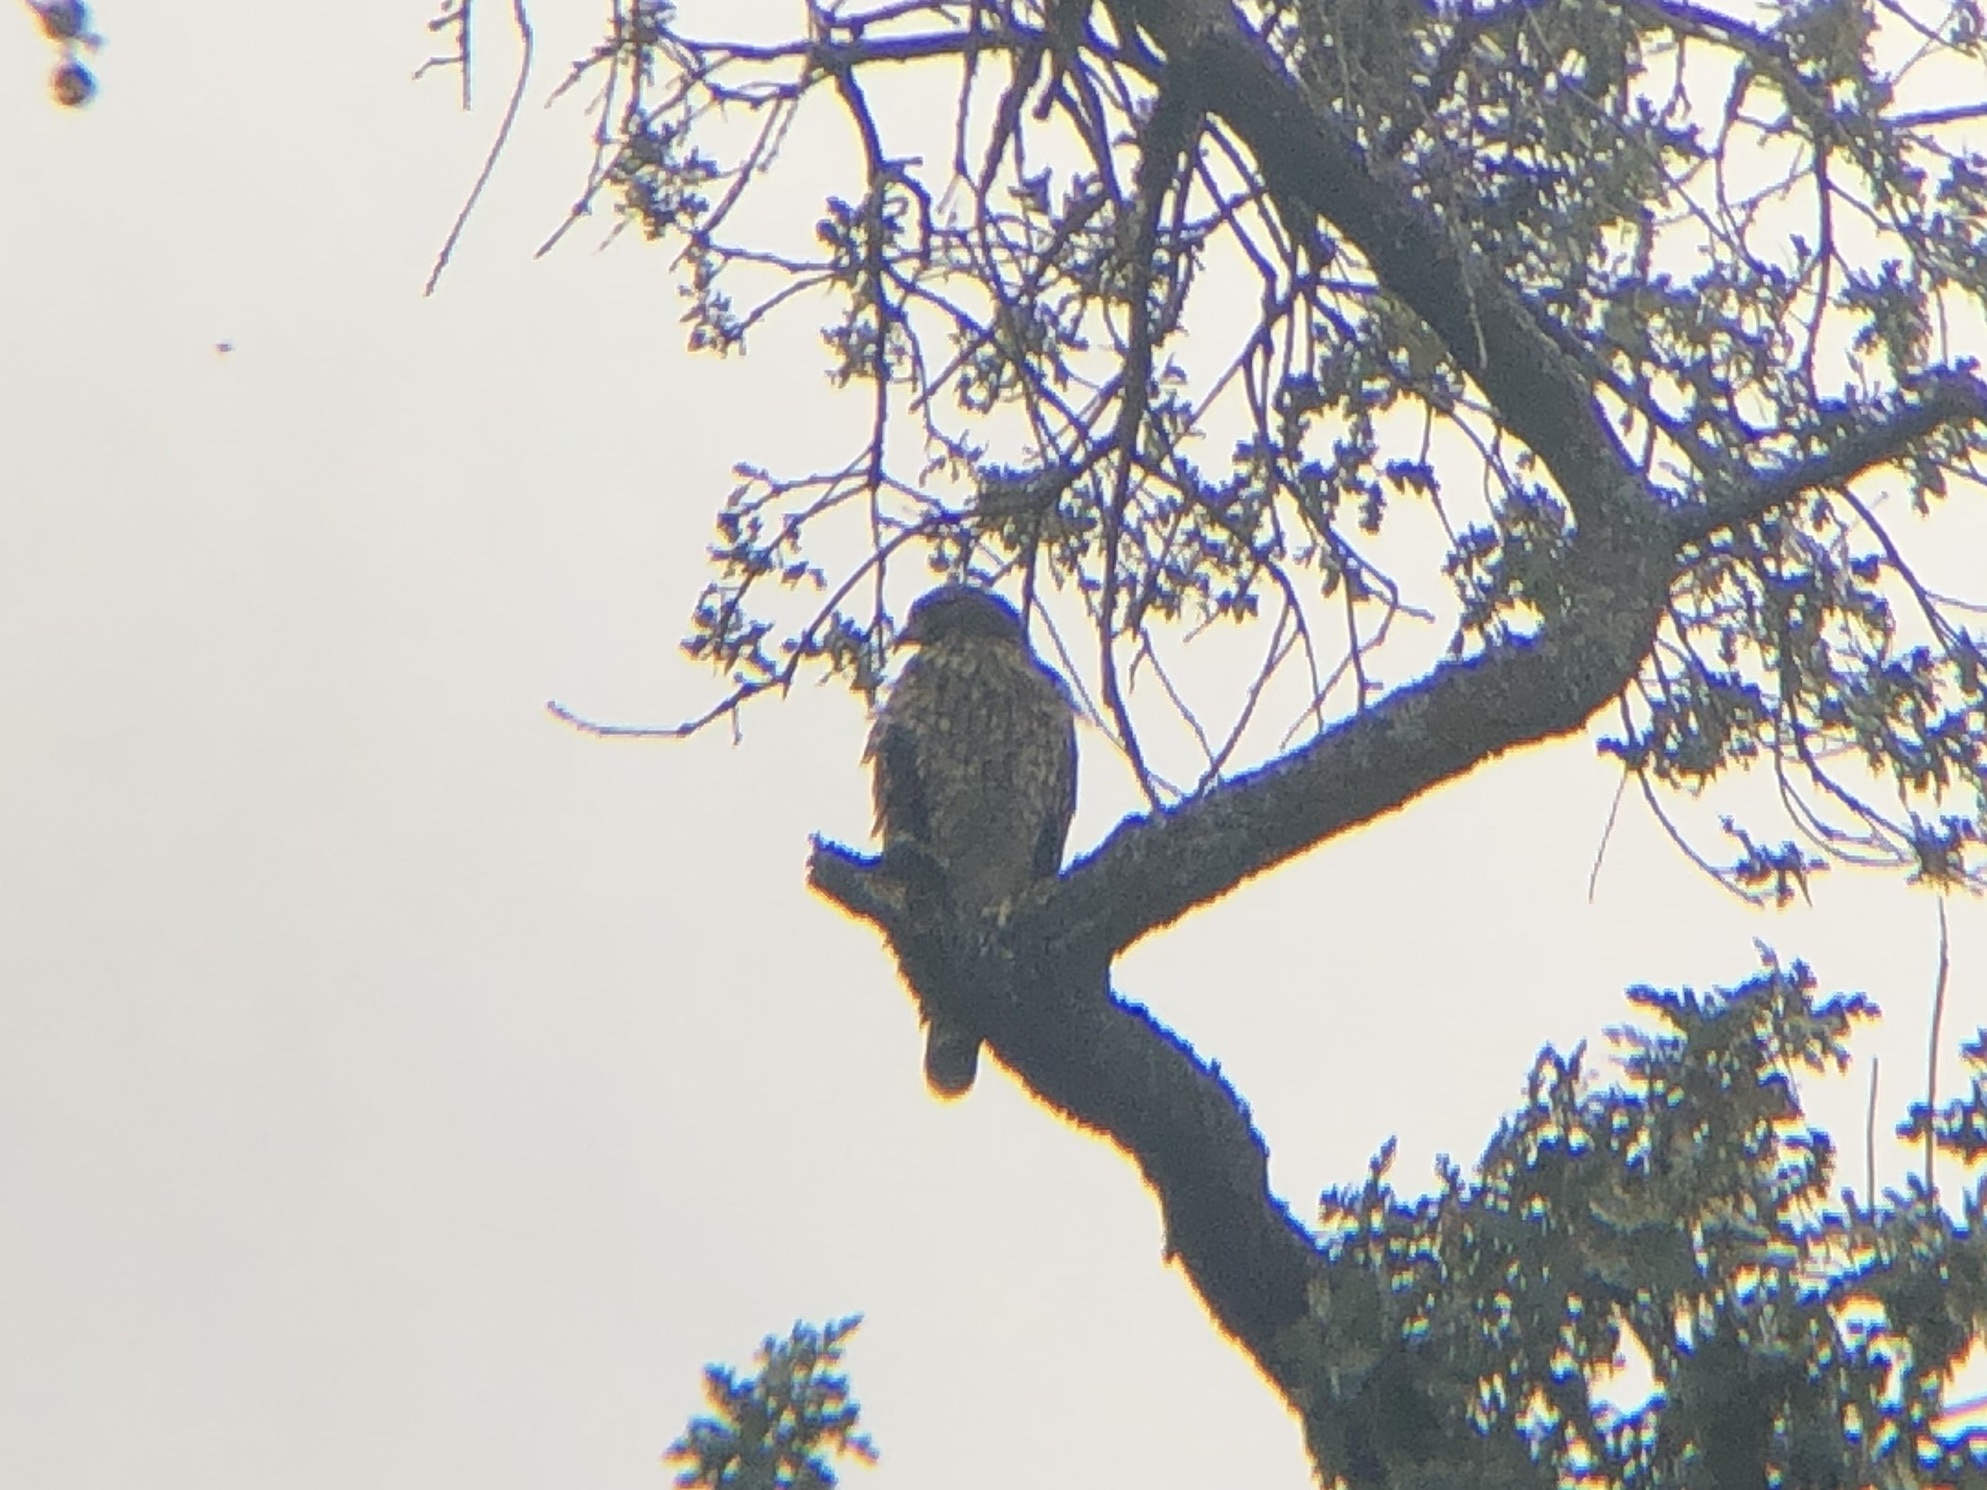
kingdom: Animalia
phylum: Chordata
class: Aves
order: Accipitriformes
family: Accipitridae
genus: Buteo
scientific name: Buteo lineatus
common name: Red-shouldered hawk
